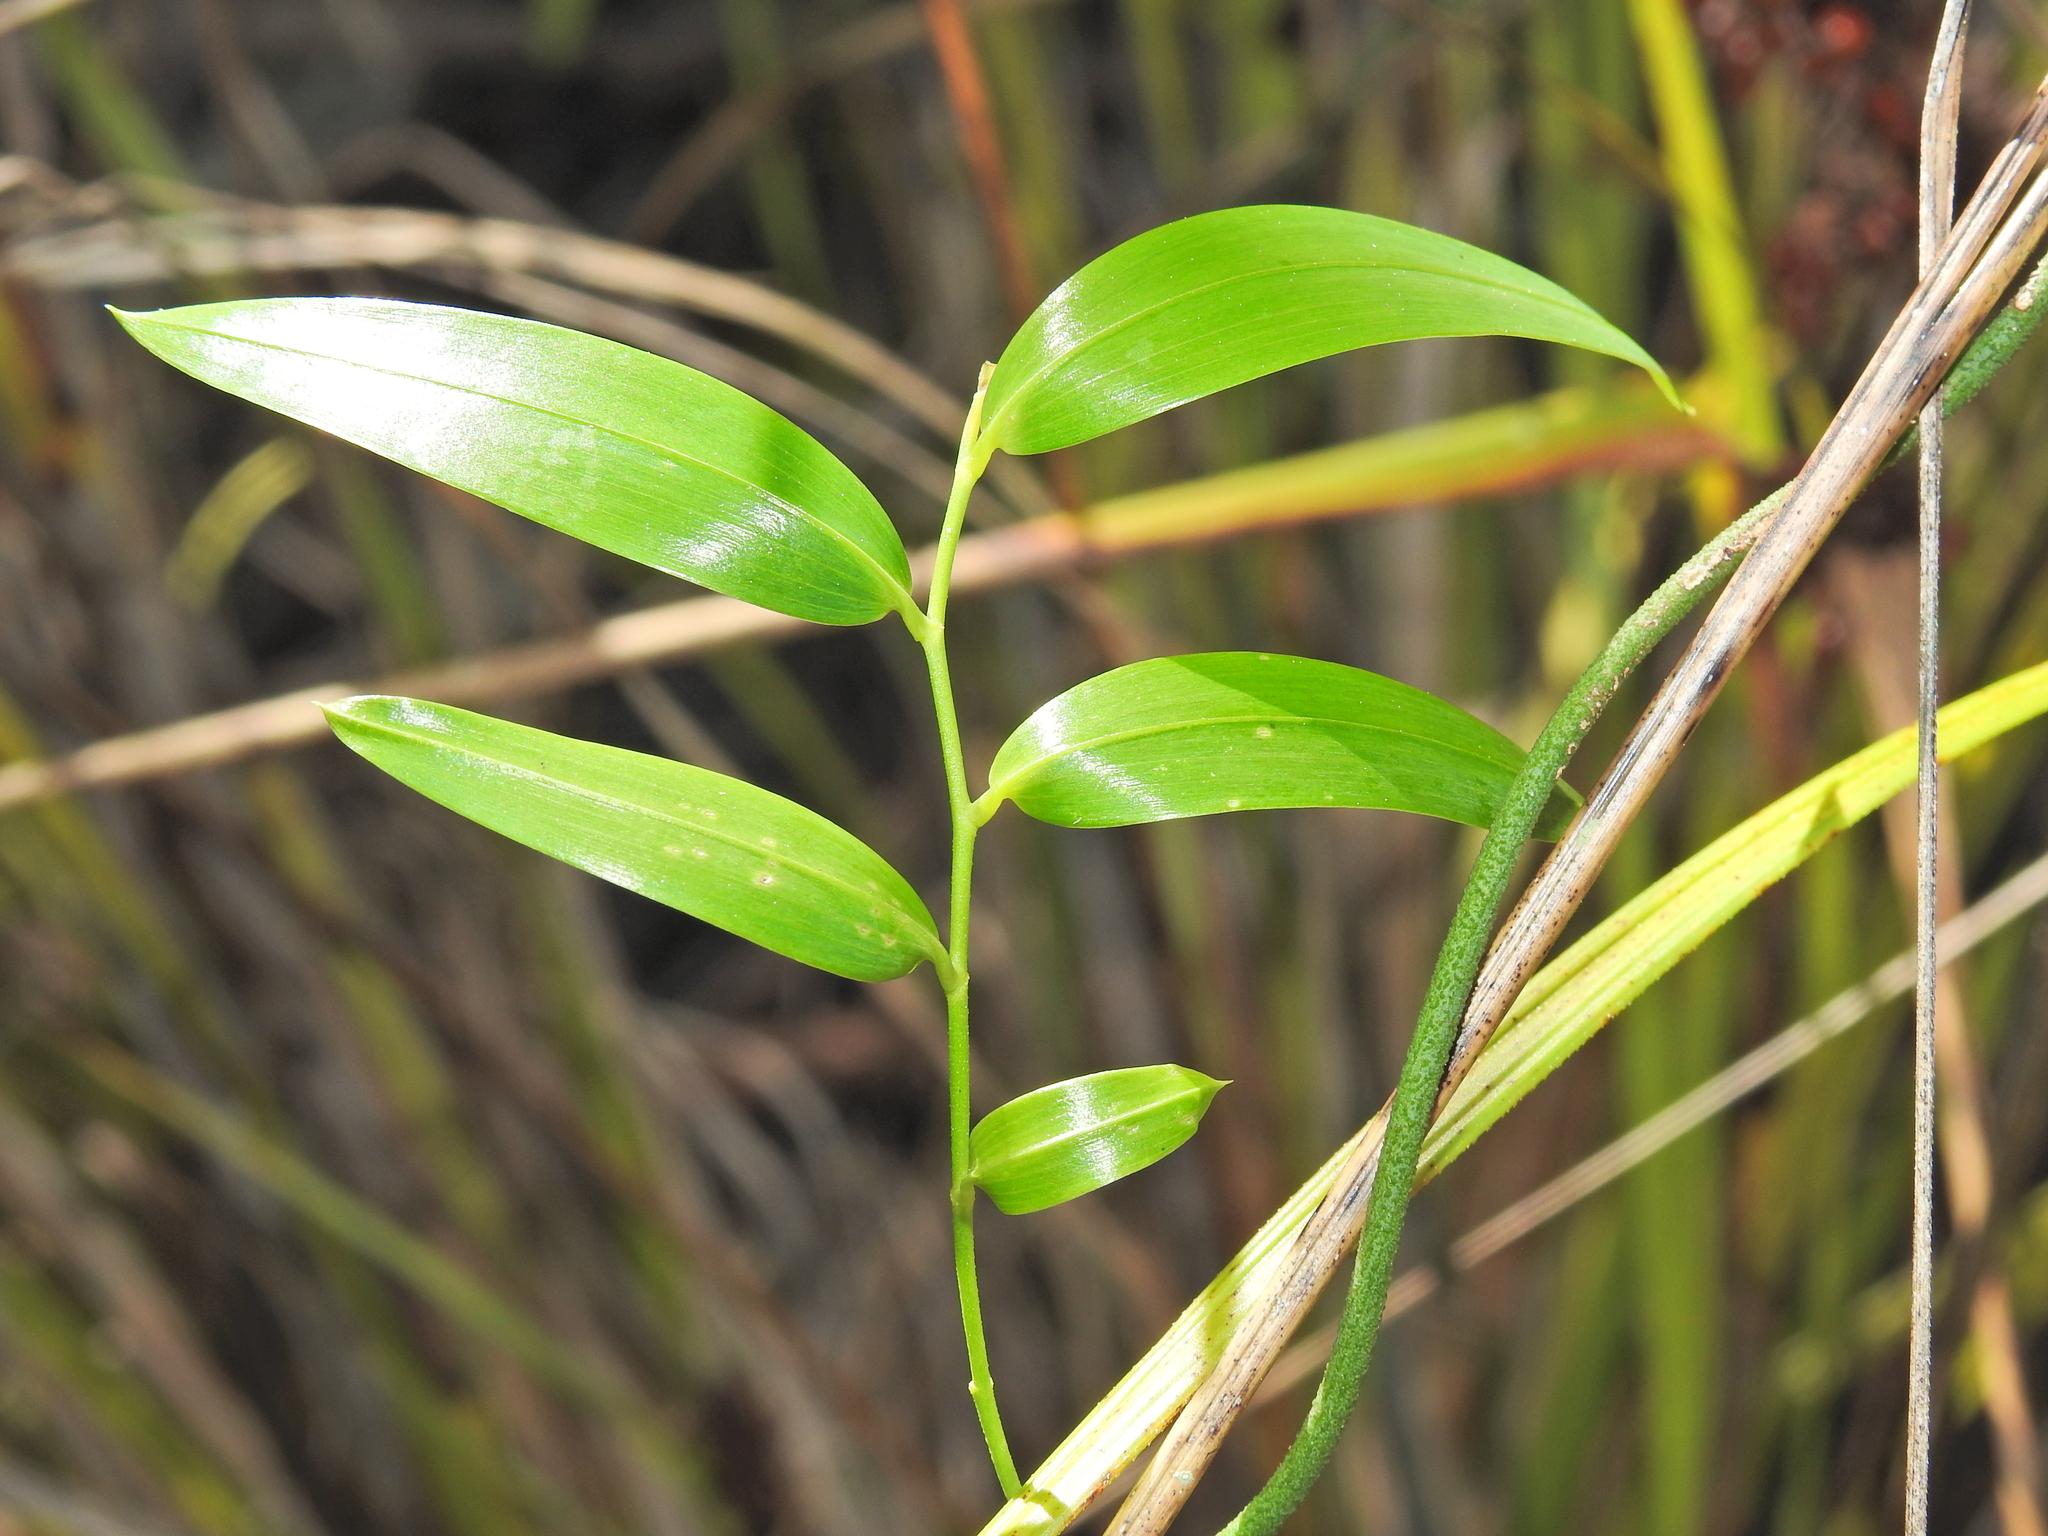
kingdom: Plantae
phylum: Tracheophyta
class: Liliopsida
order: Asparagales
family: Asphodelaceae
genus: Geitonoplesium
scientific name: Geitonoplesium cymosum
